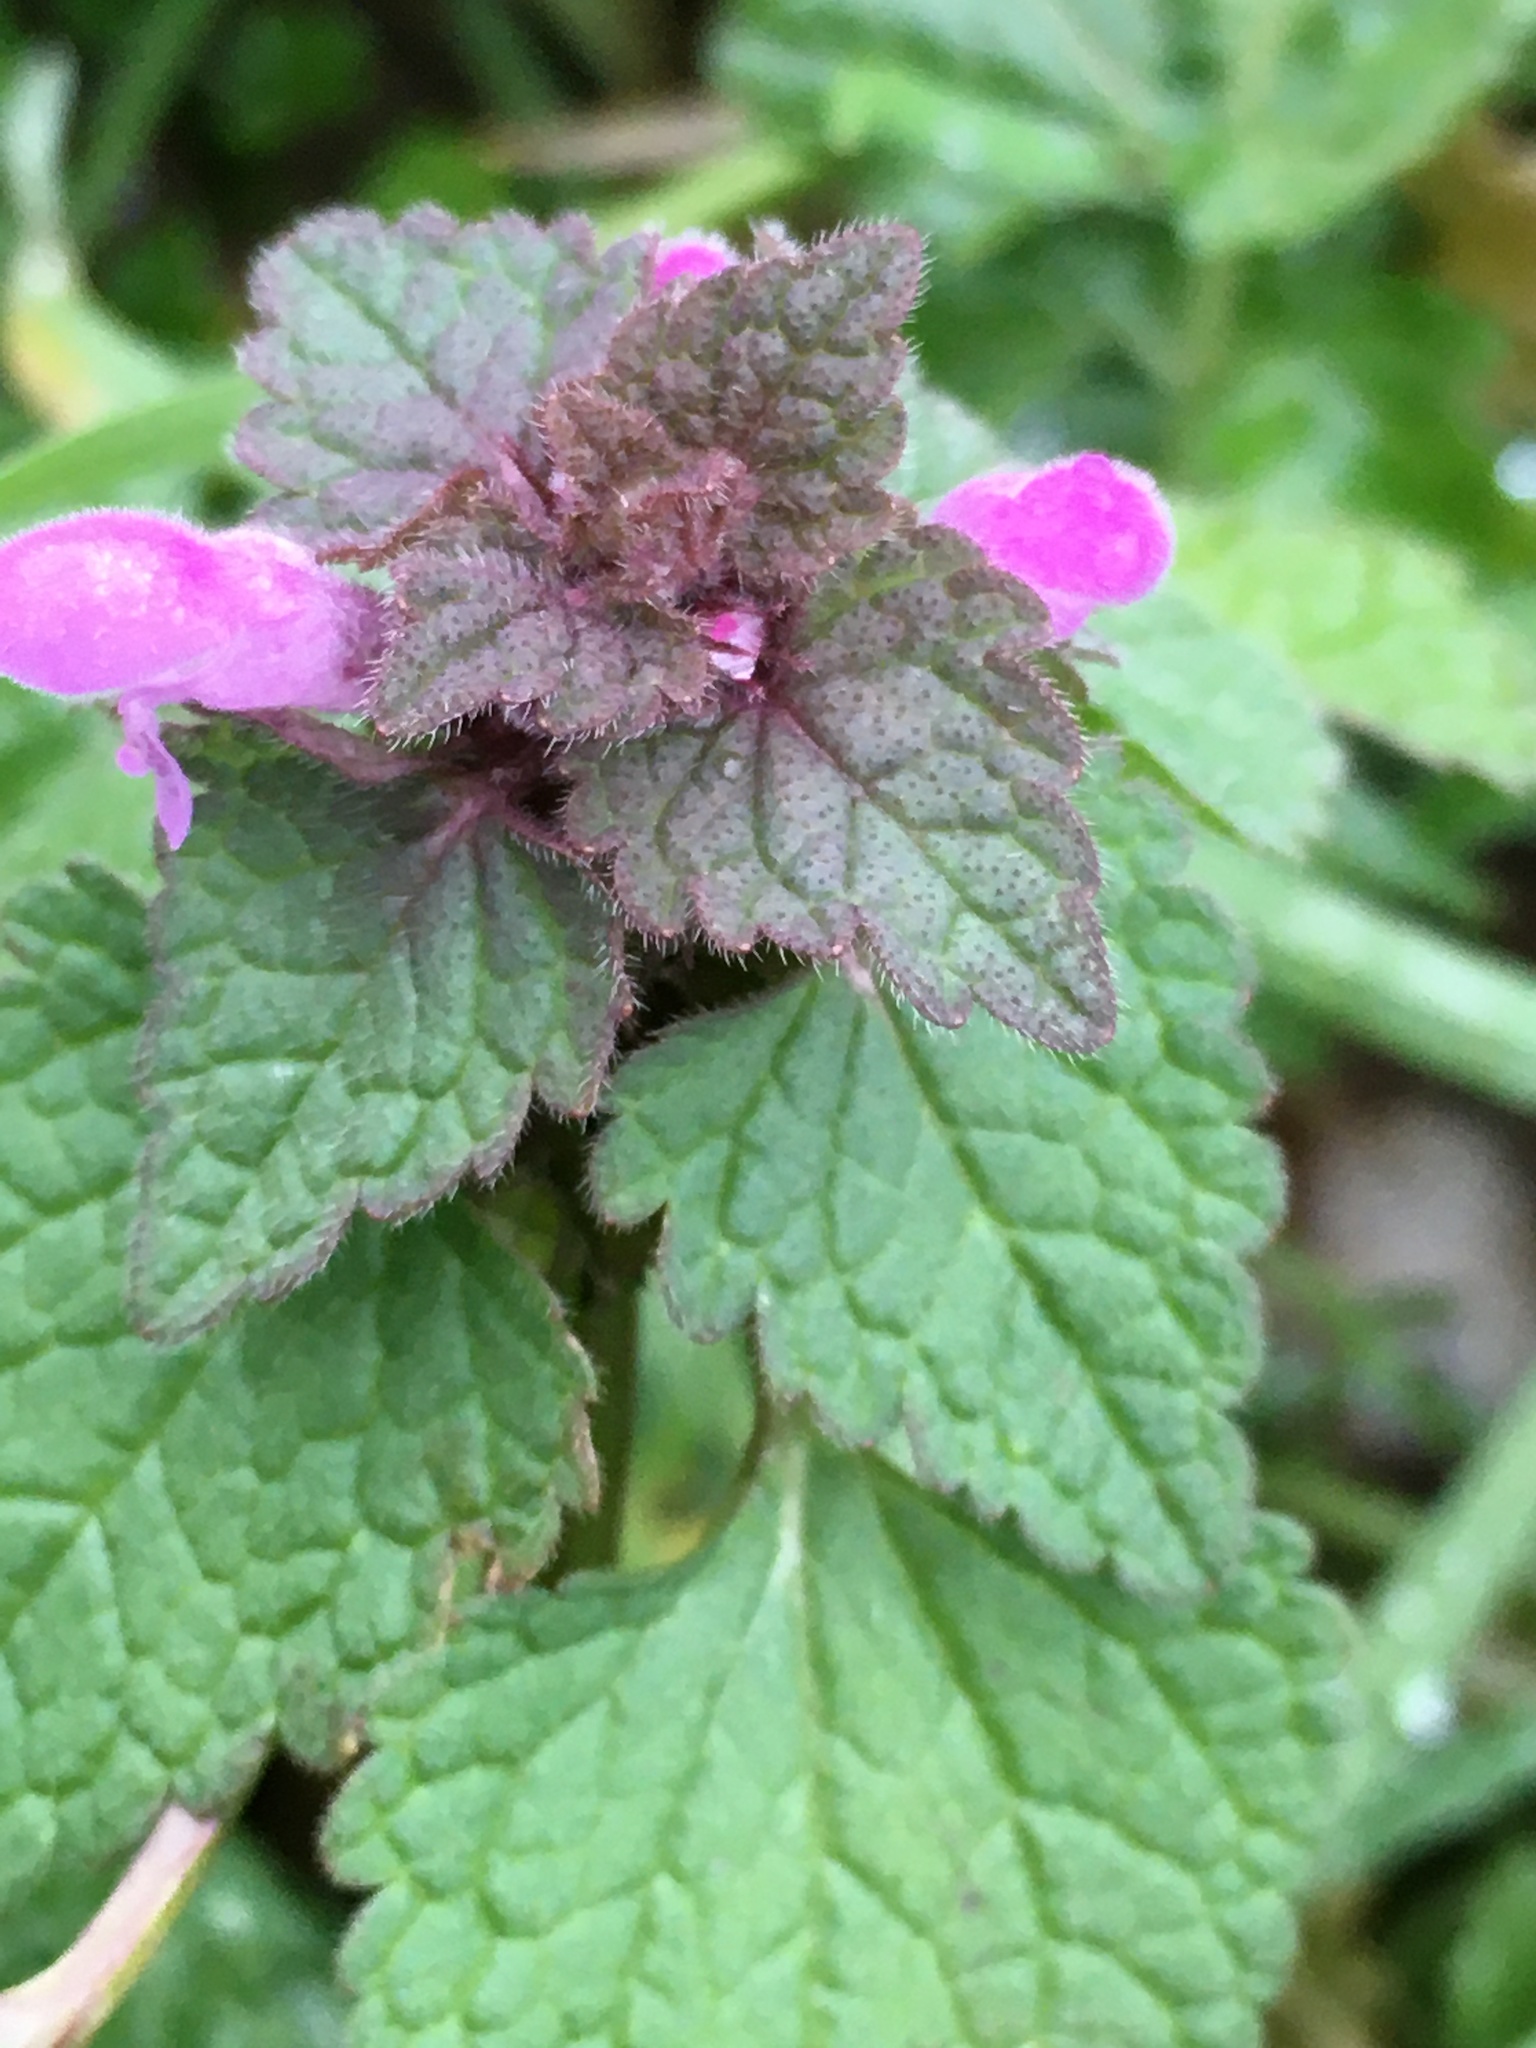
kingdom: Plantae
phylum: Tracheophyta
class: Magnoliopsida
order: Lamiales
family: Lamiaceae
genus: Lamium
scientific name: Lamium purpureum
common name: Red dead-nettle
